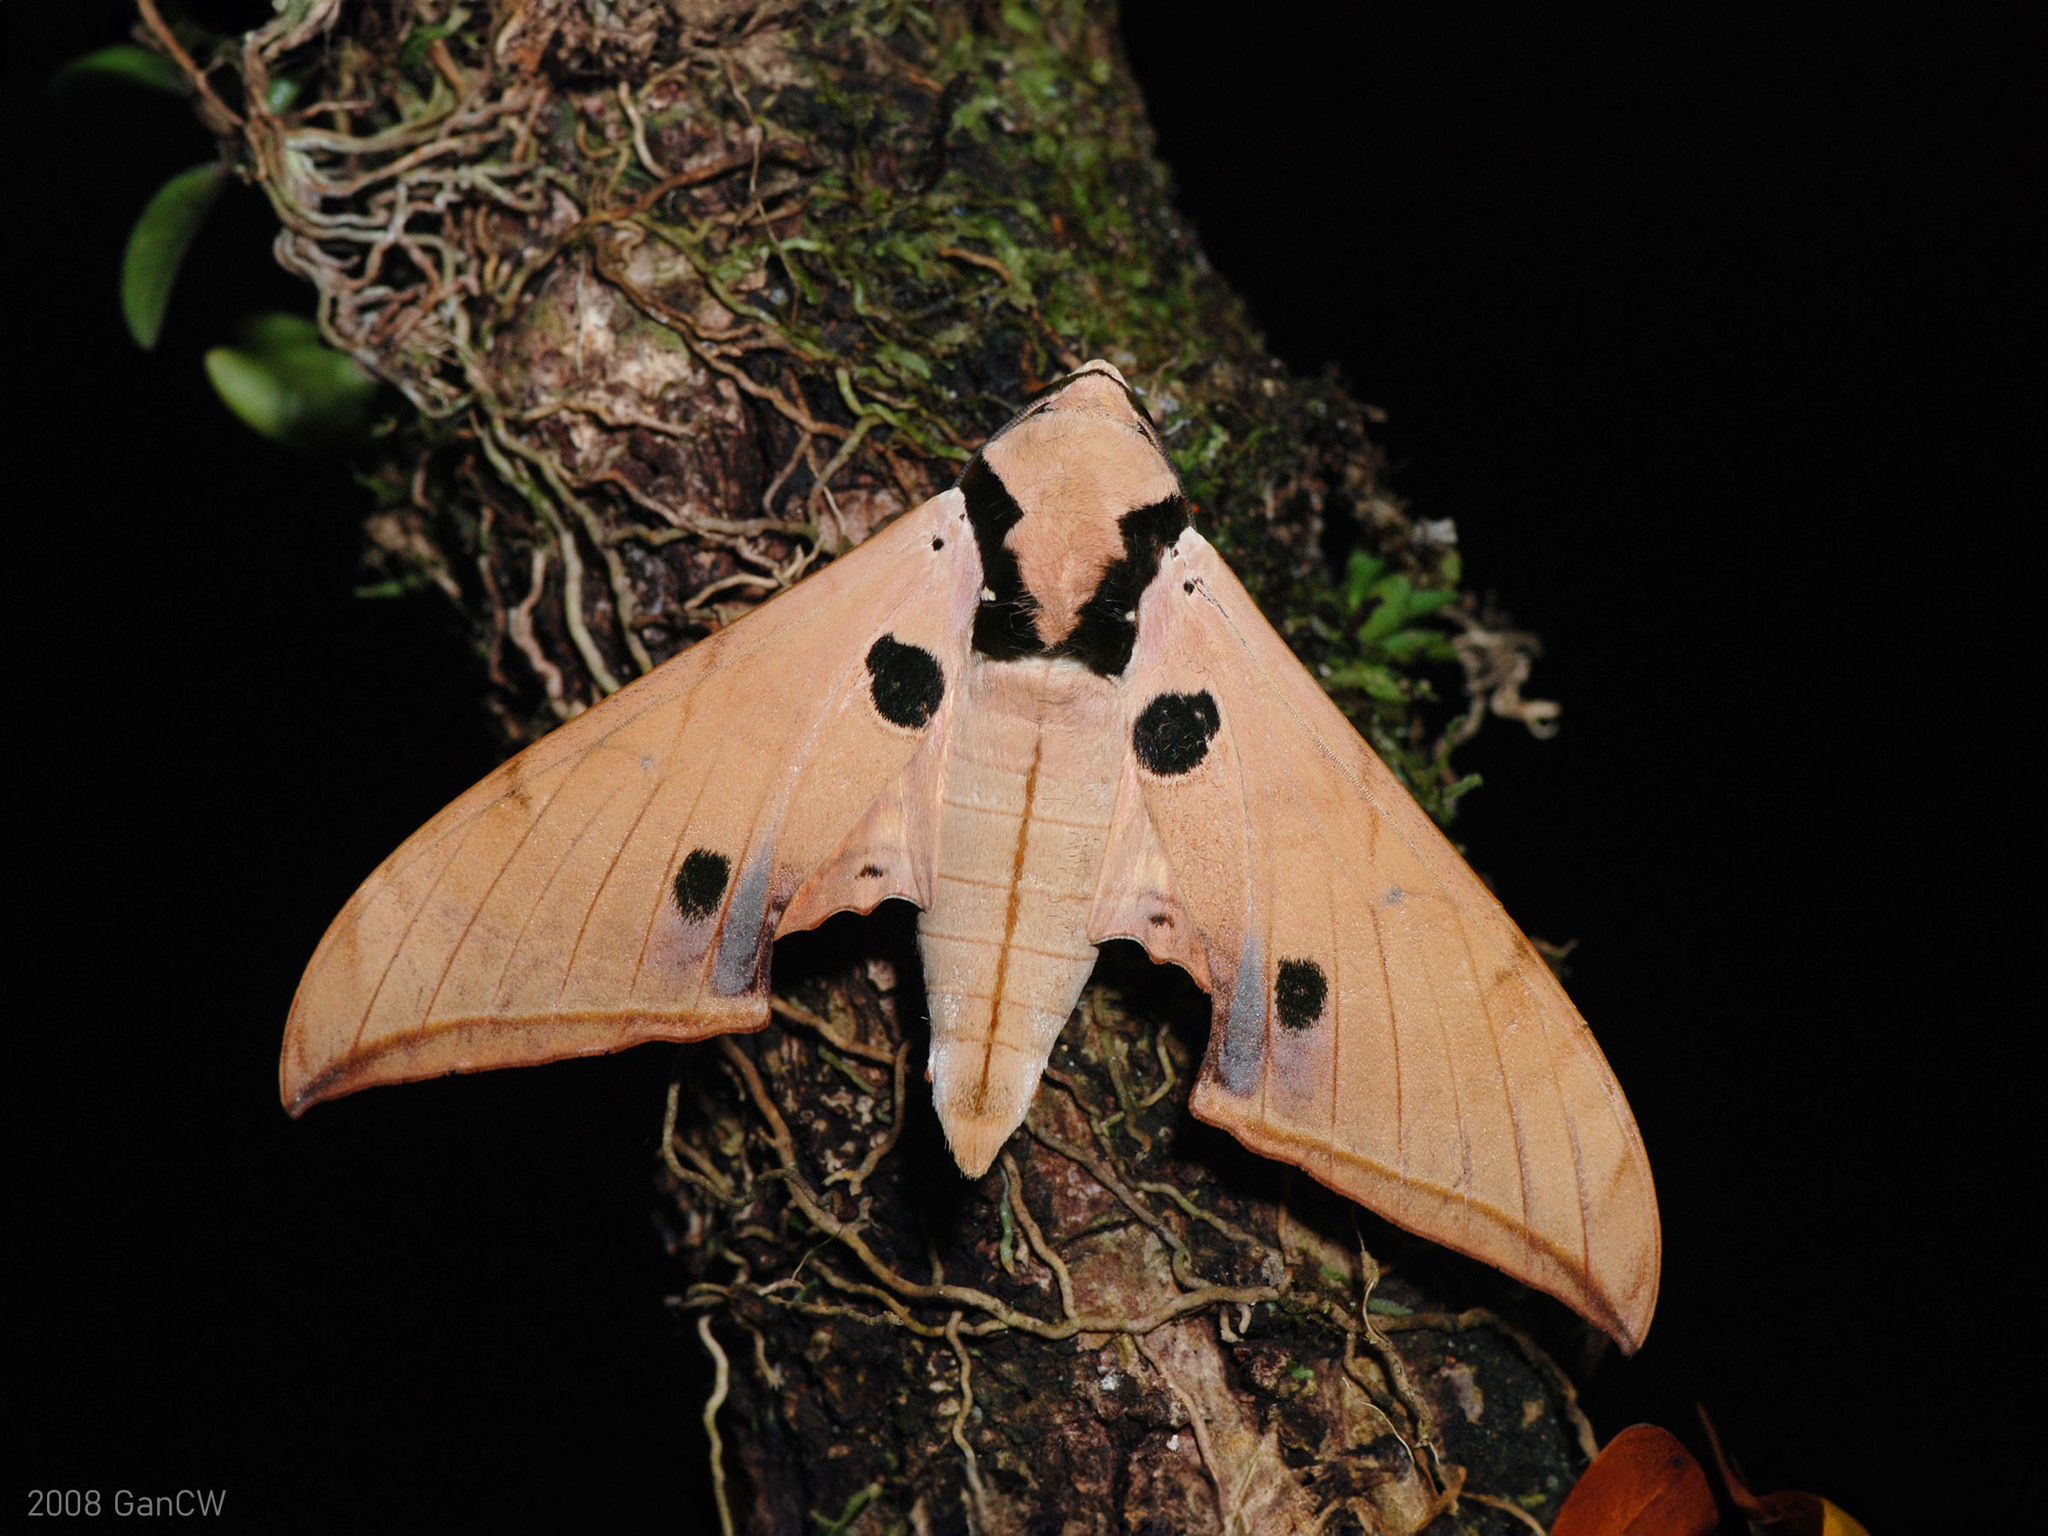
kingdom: Animalia
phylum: Arthropoda
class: Insecta
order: Lepidoptera
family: Sphingidae
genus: Ambulyx
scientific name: Ambulyx obliterata
